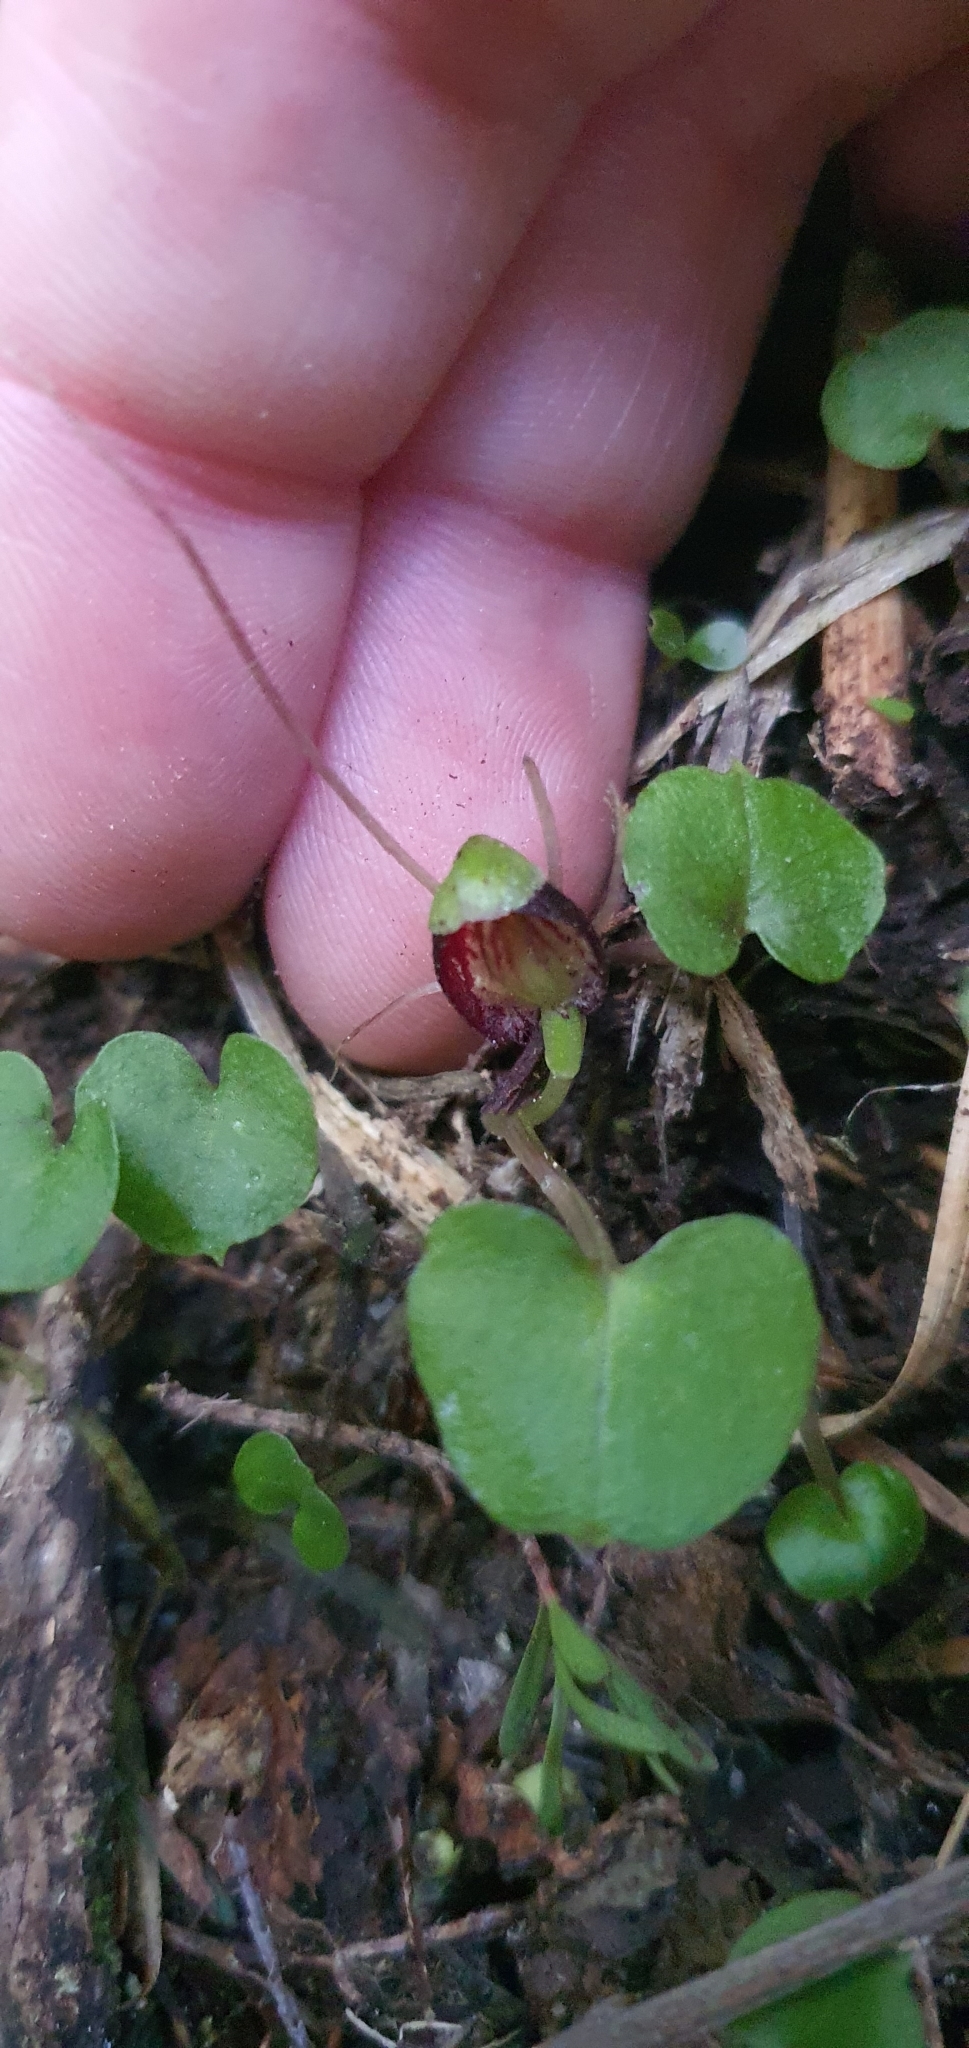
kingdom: Plantae
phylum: Tracheophyta
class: Liliopsida
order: Asparagales
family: Orchidaceae
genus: Corybas
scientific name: Corybas trilobus
